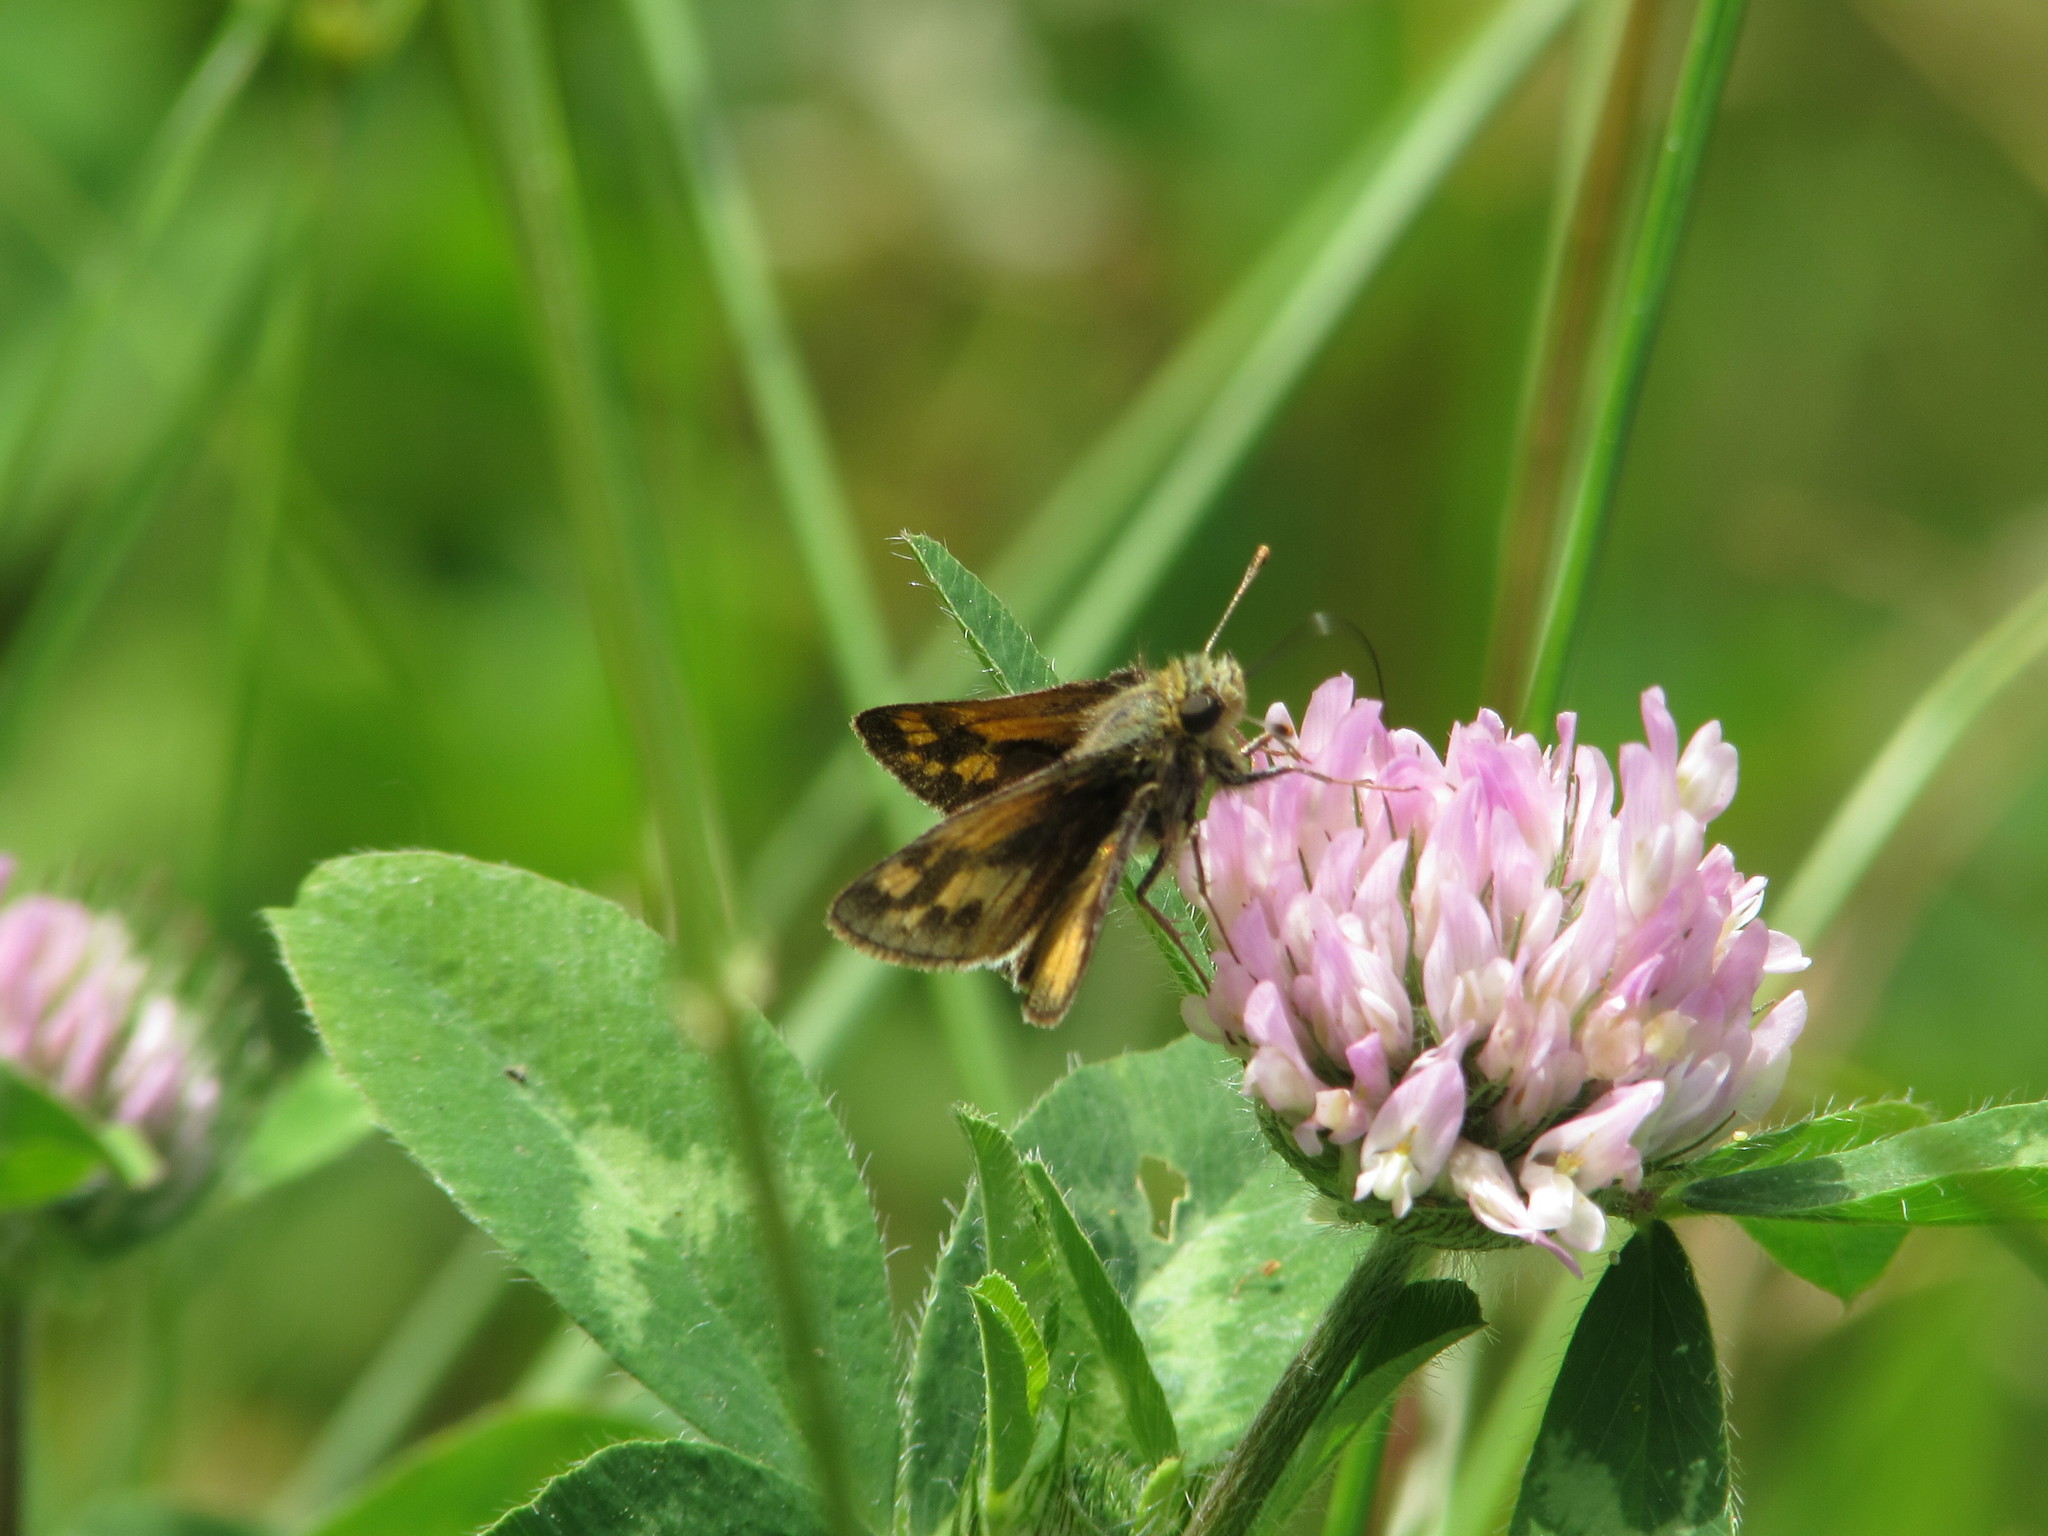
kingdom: Animalia
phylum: Arthropoda
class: Insecta
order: Lepidoptera
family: Hesperiidae
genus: Polites
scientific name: Polites coras
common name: Peck's skipper
